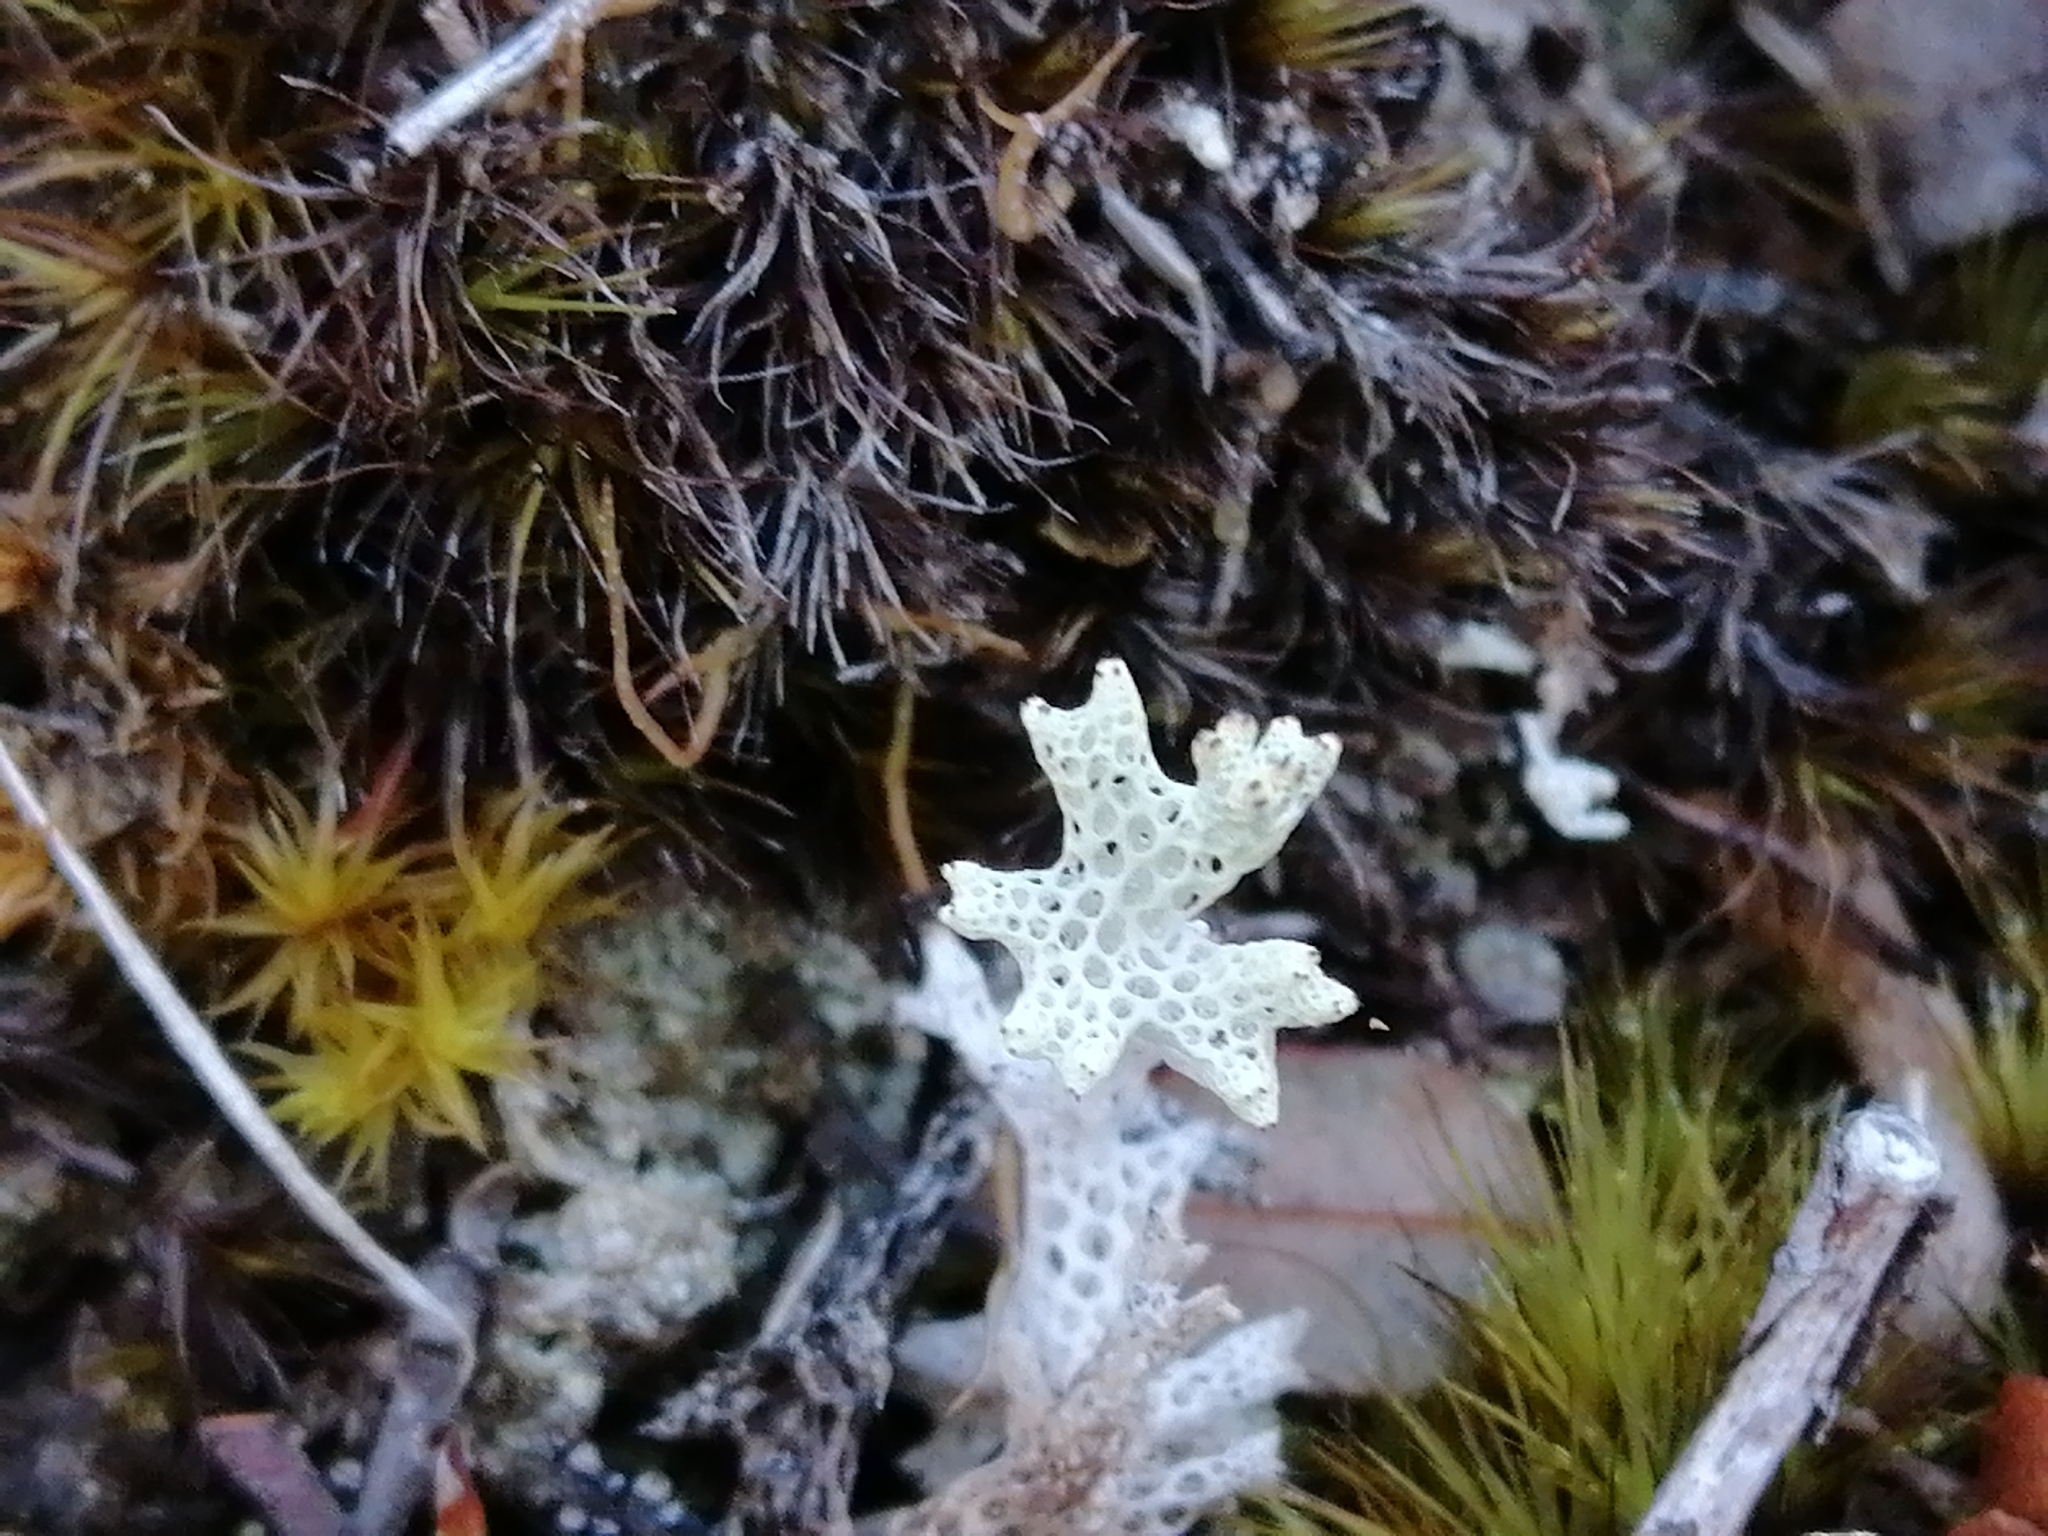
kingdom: Fungi
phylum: Ascomycota
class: Lecanoromycetes
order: Lecanorales
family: Cladoniaceae
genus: Pulchrocladia
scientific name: Pulchrocladia retipora
